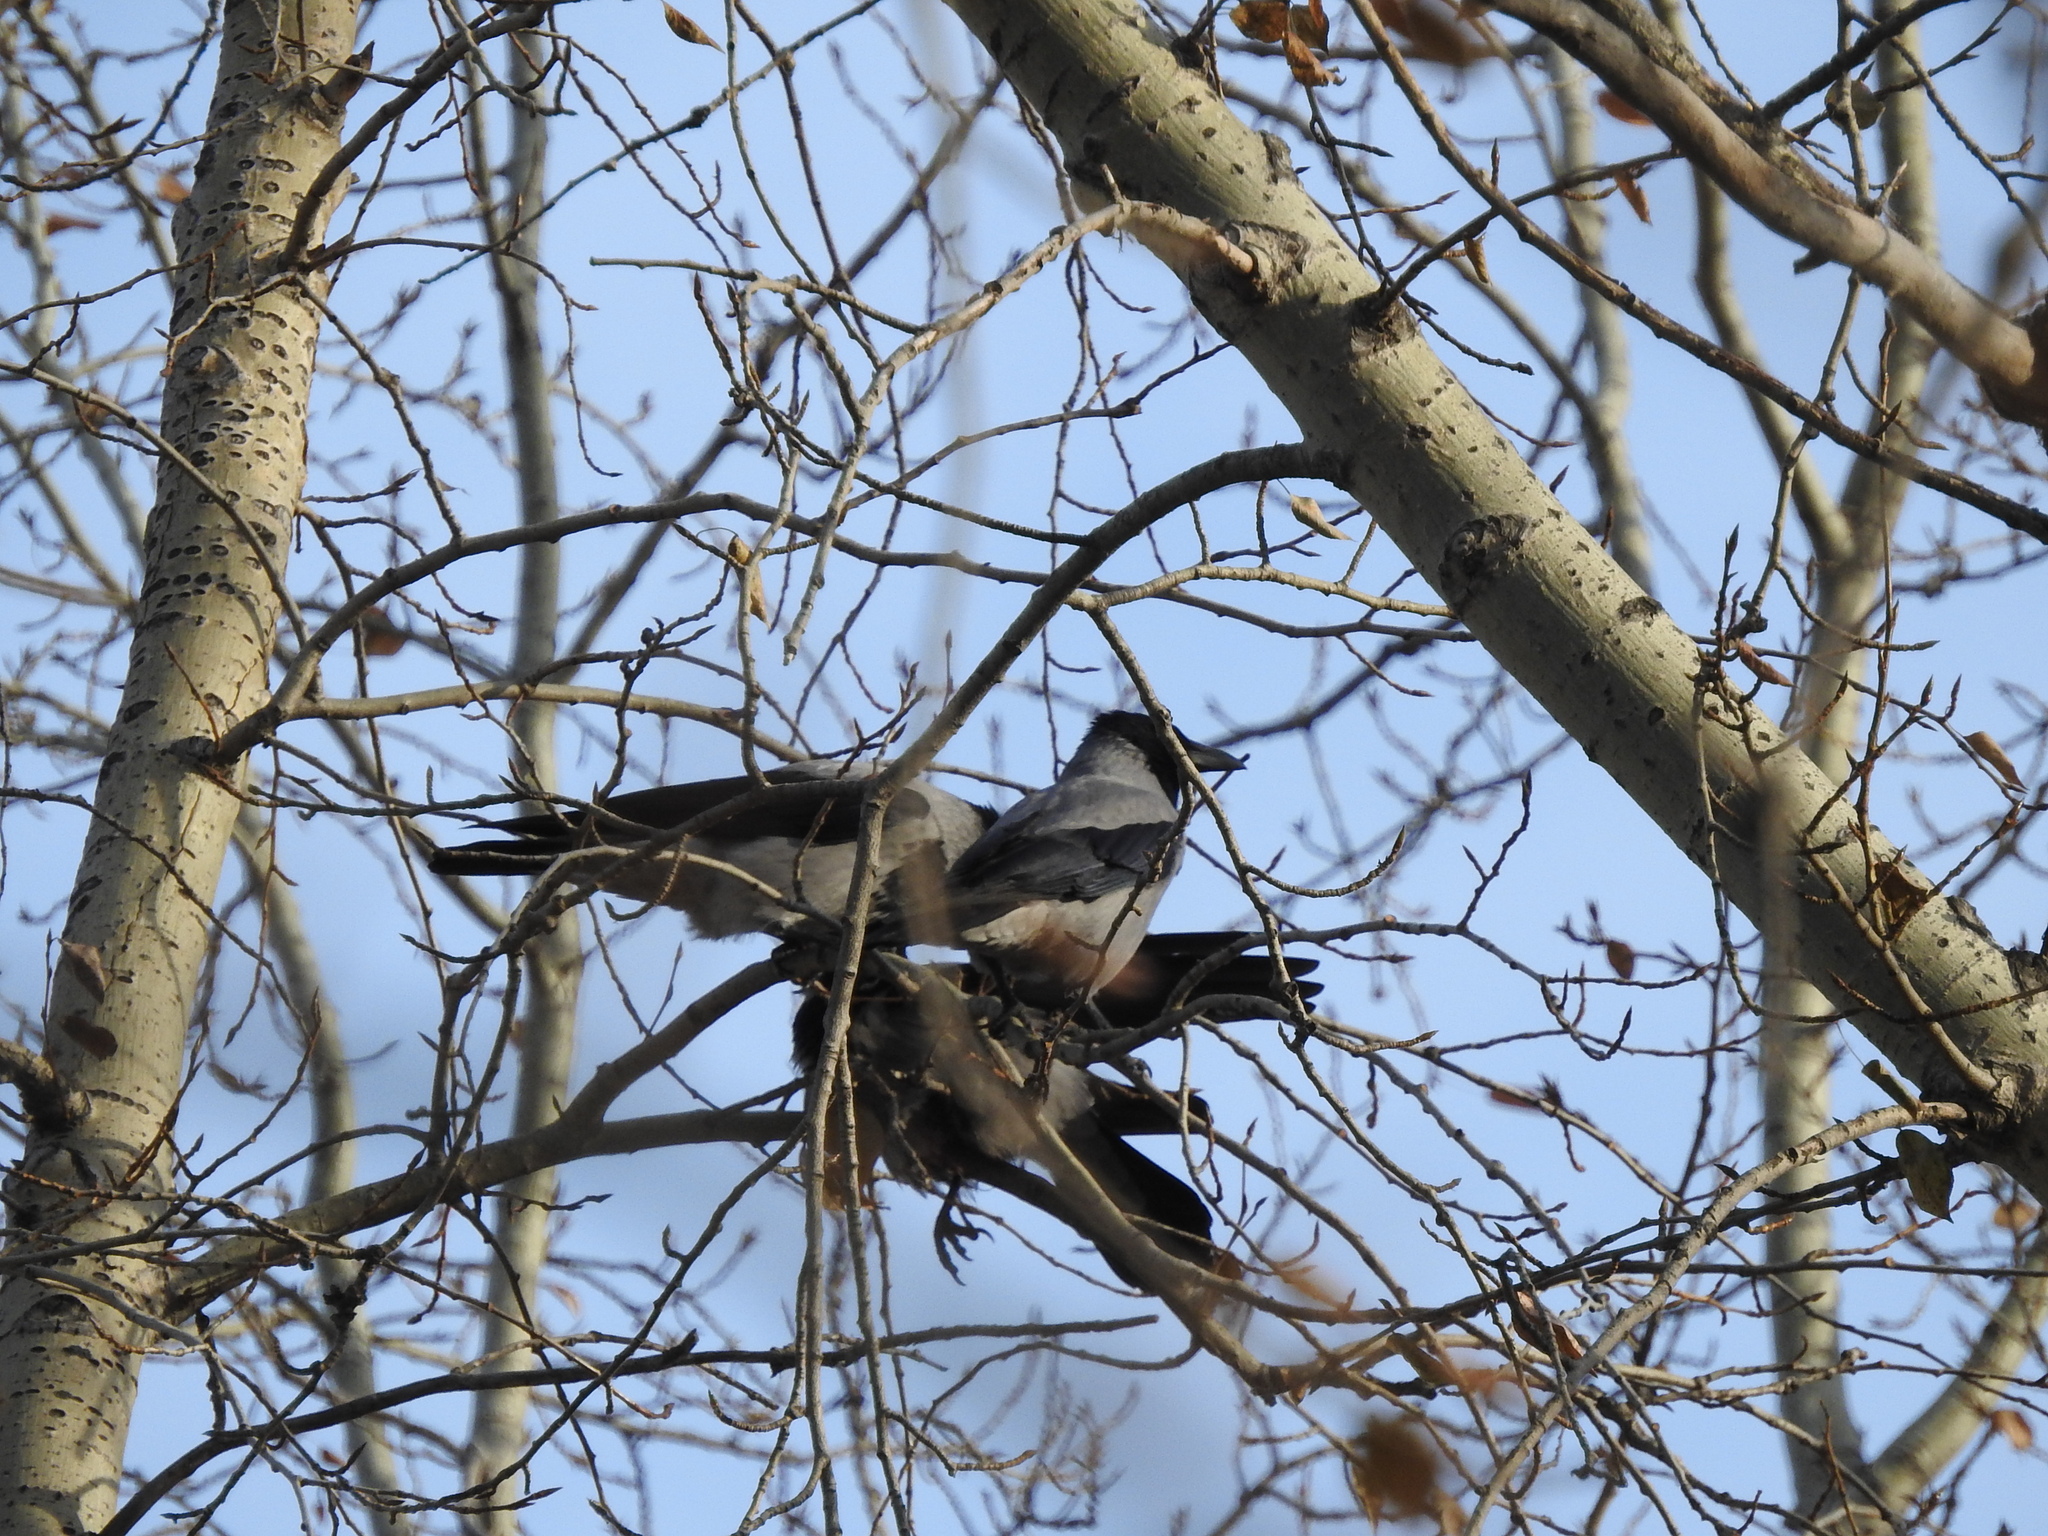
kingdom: Animalia
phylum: Chordata
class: Aves
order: Passeriformes
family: Corvidae
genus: Corvus
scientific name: Corvus cornix
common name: Hooded crow
